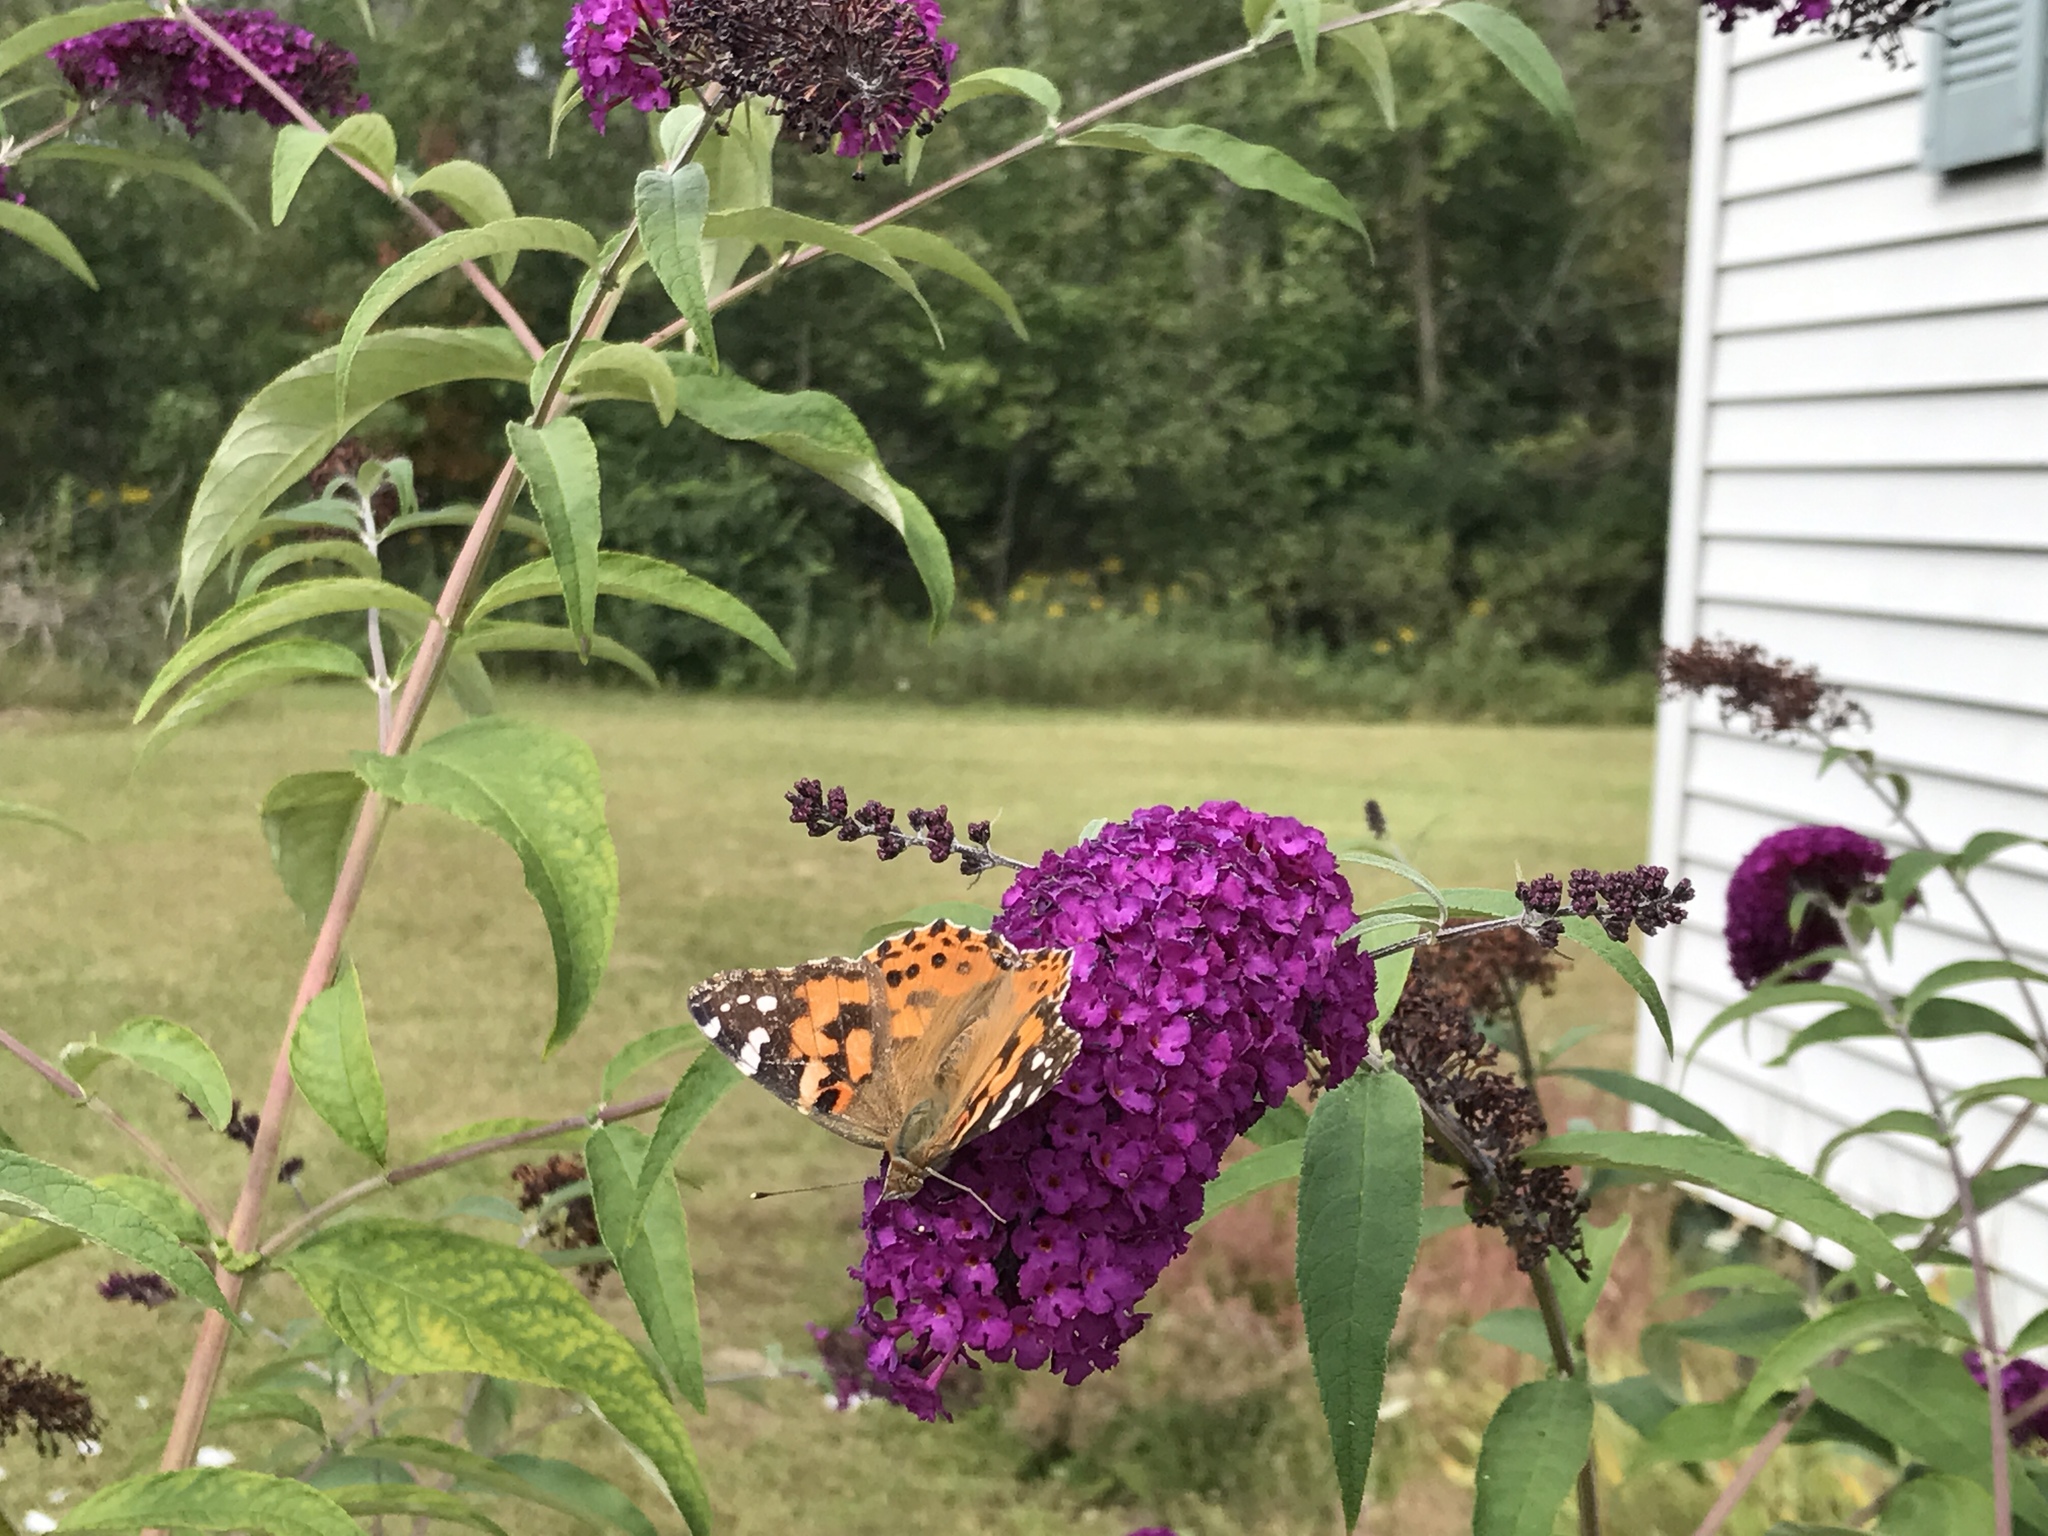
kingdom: Animalia
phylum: Arthropoda
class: Insecta
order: Lepidoptera
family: Nymphalidae
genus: Vanessa
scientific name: Vanessa cardui
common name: Painted lady
